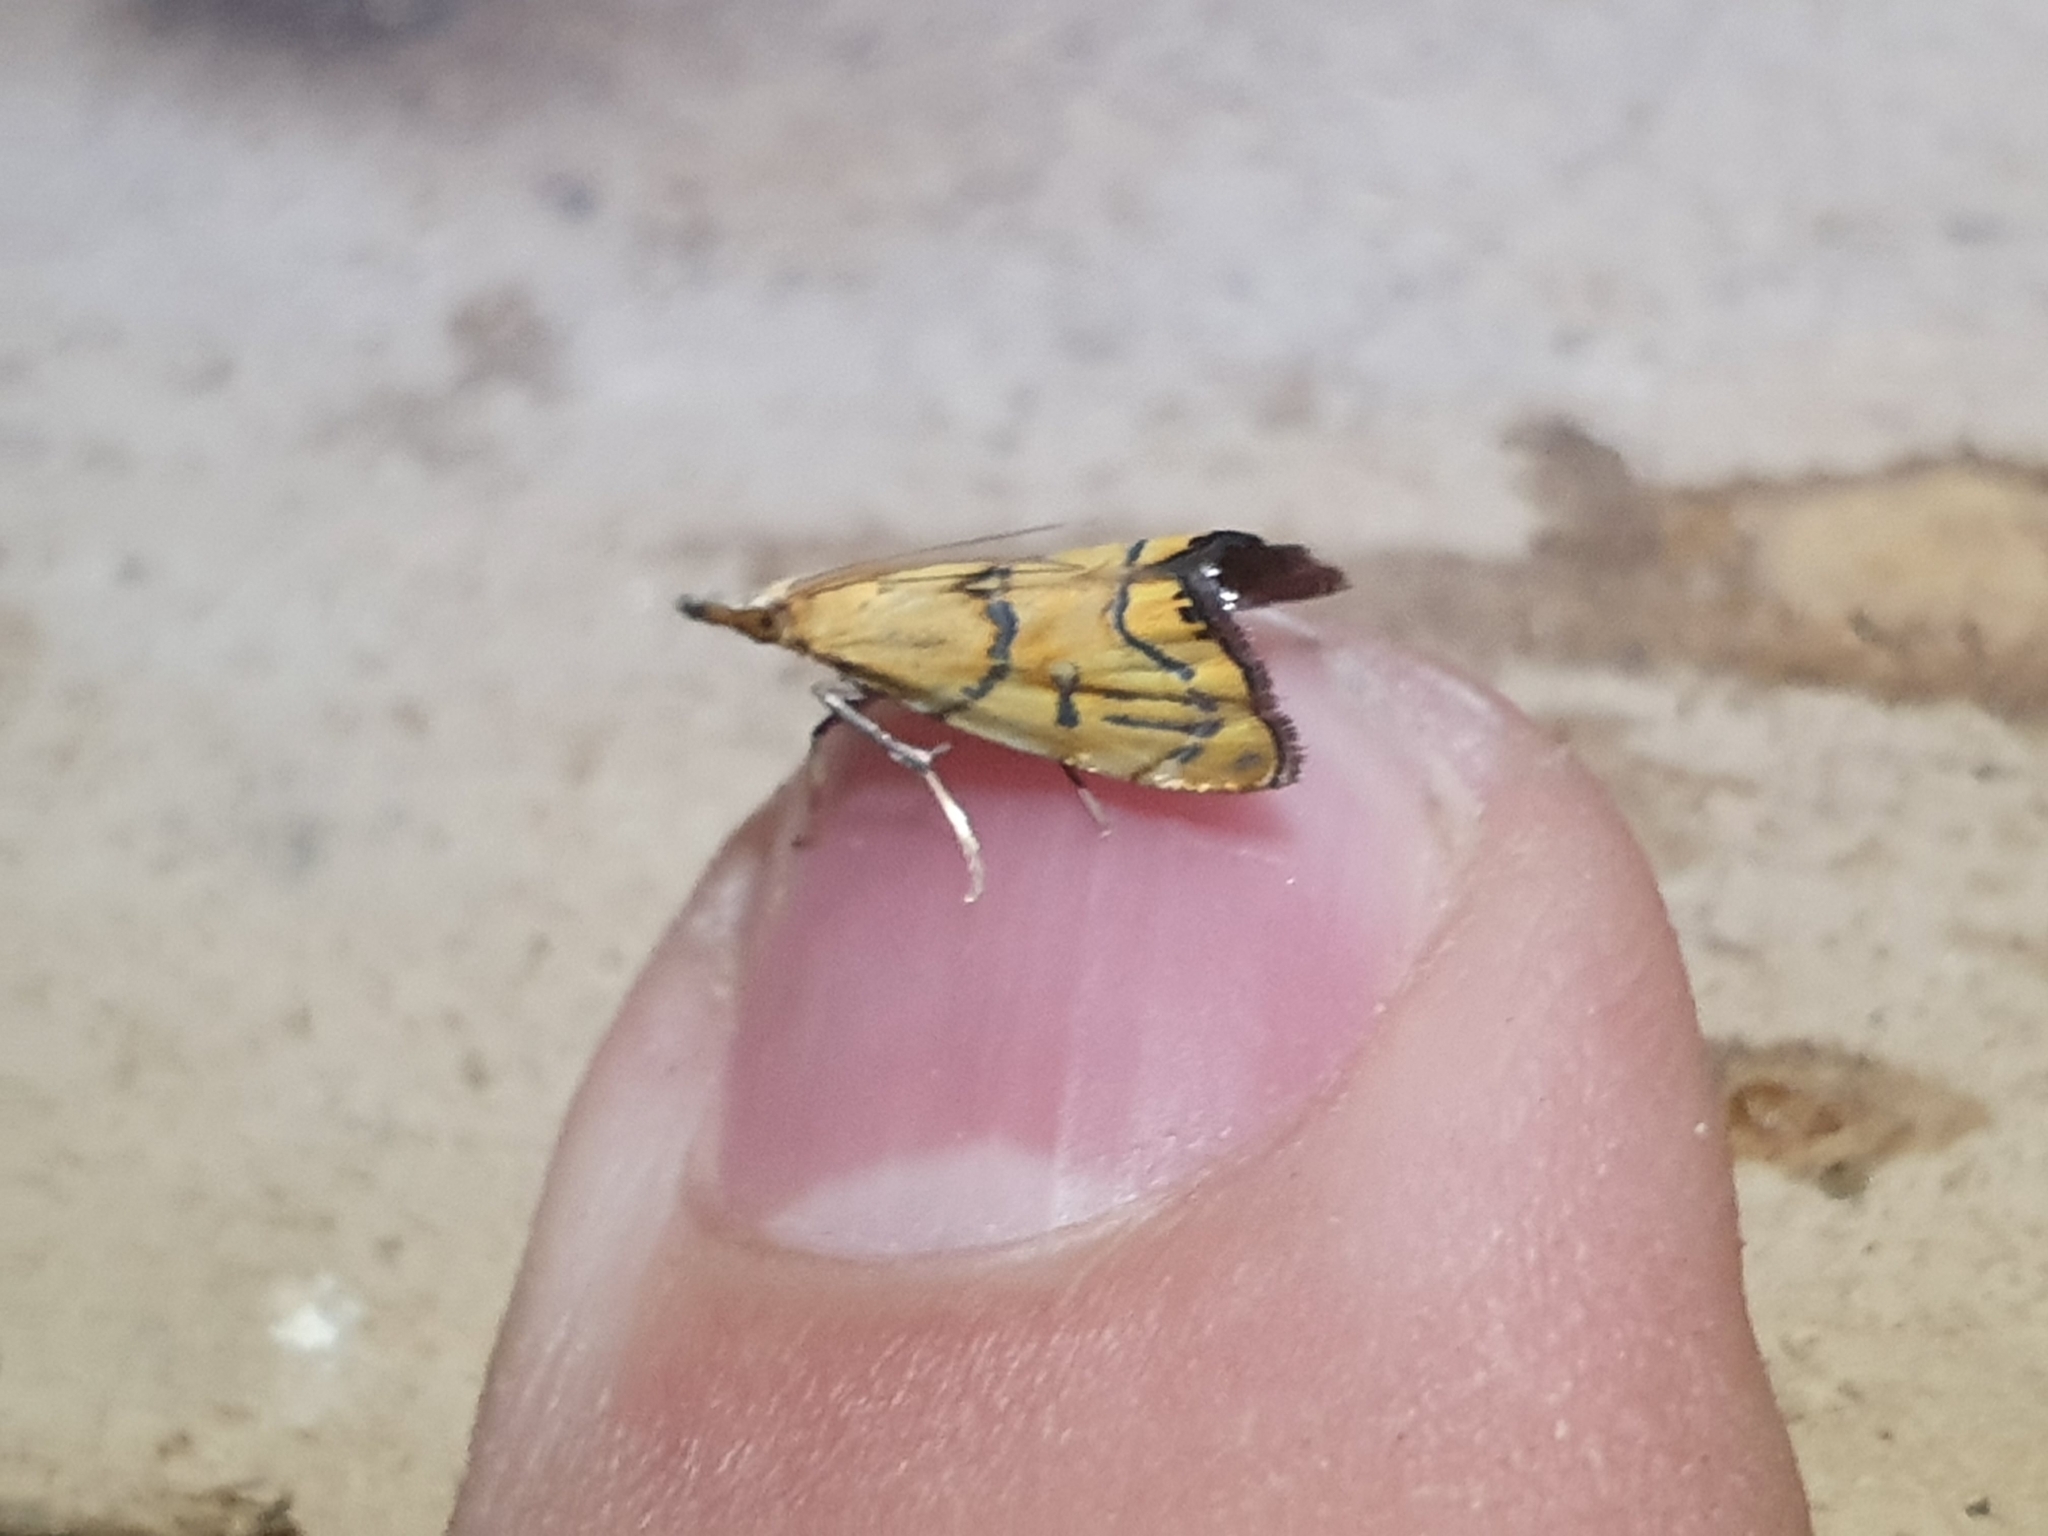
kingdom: Animalia
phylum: Arthropoda
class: Insecta
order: Lepidoptera
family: Crambidae
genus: Glaucocharis
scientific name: Glaucocharis auriscriptella
